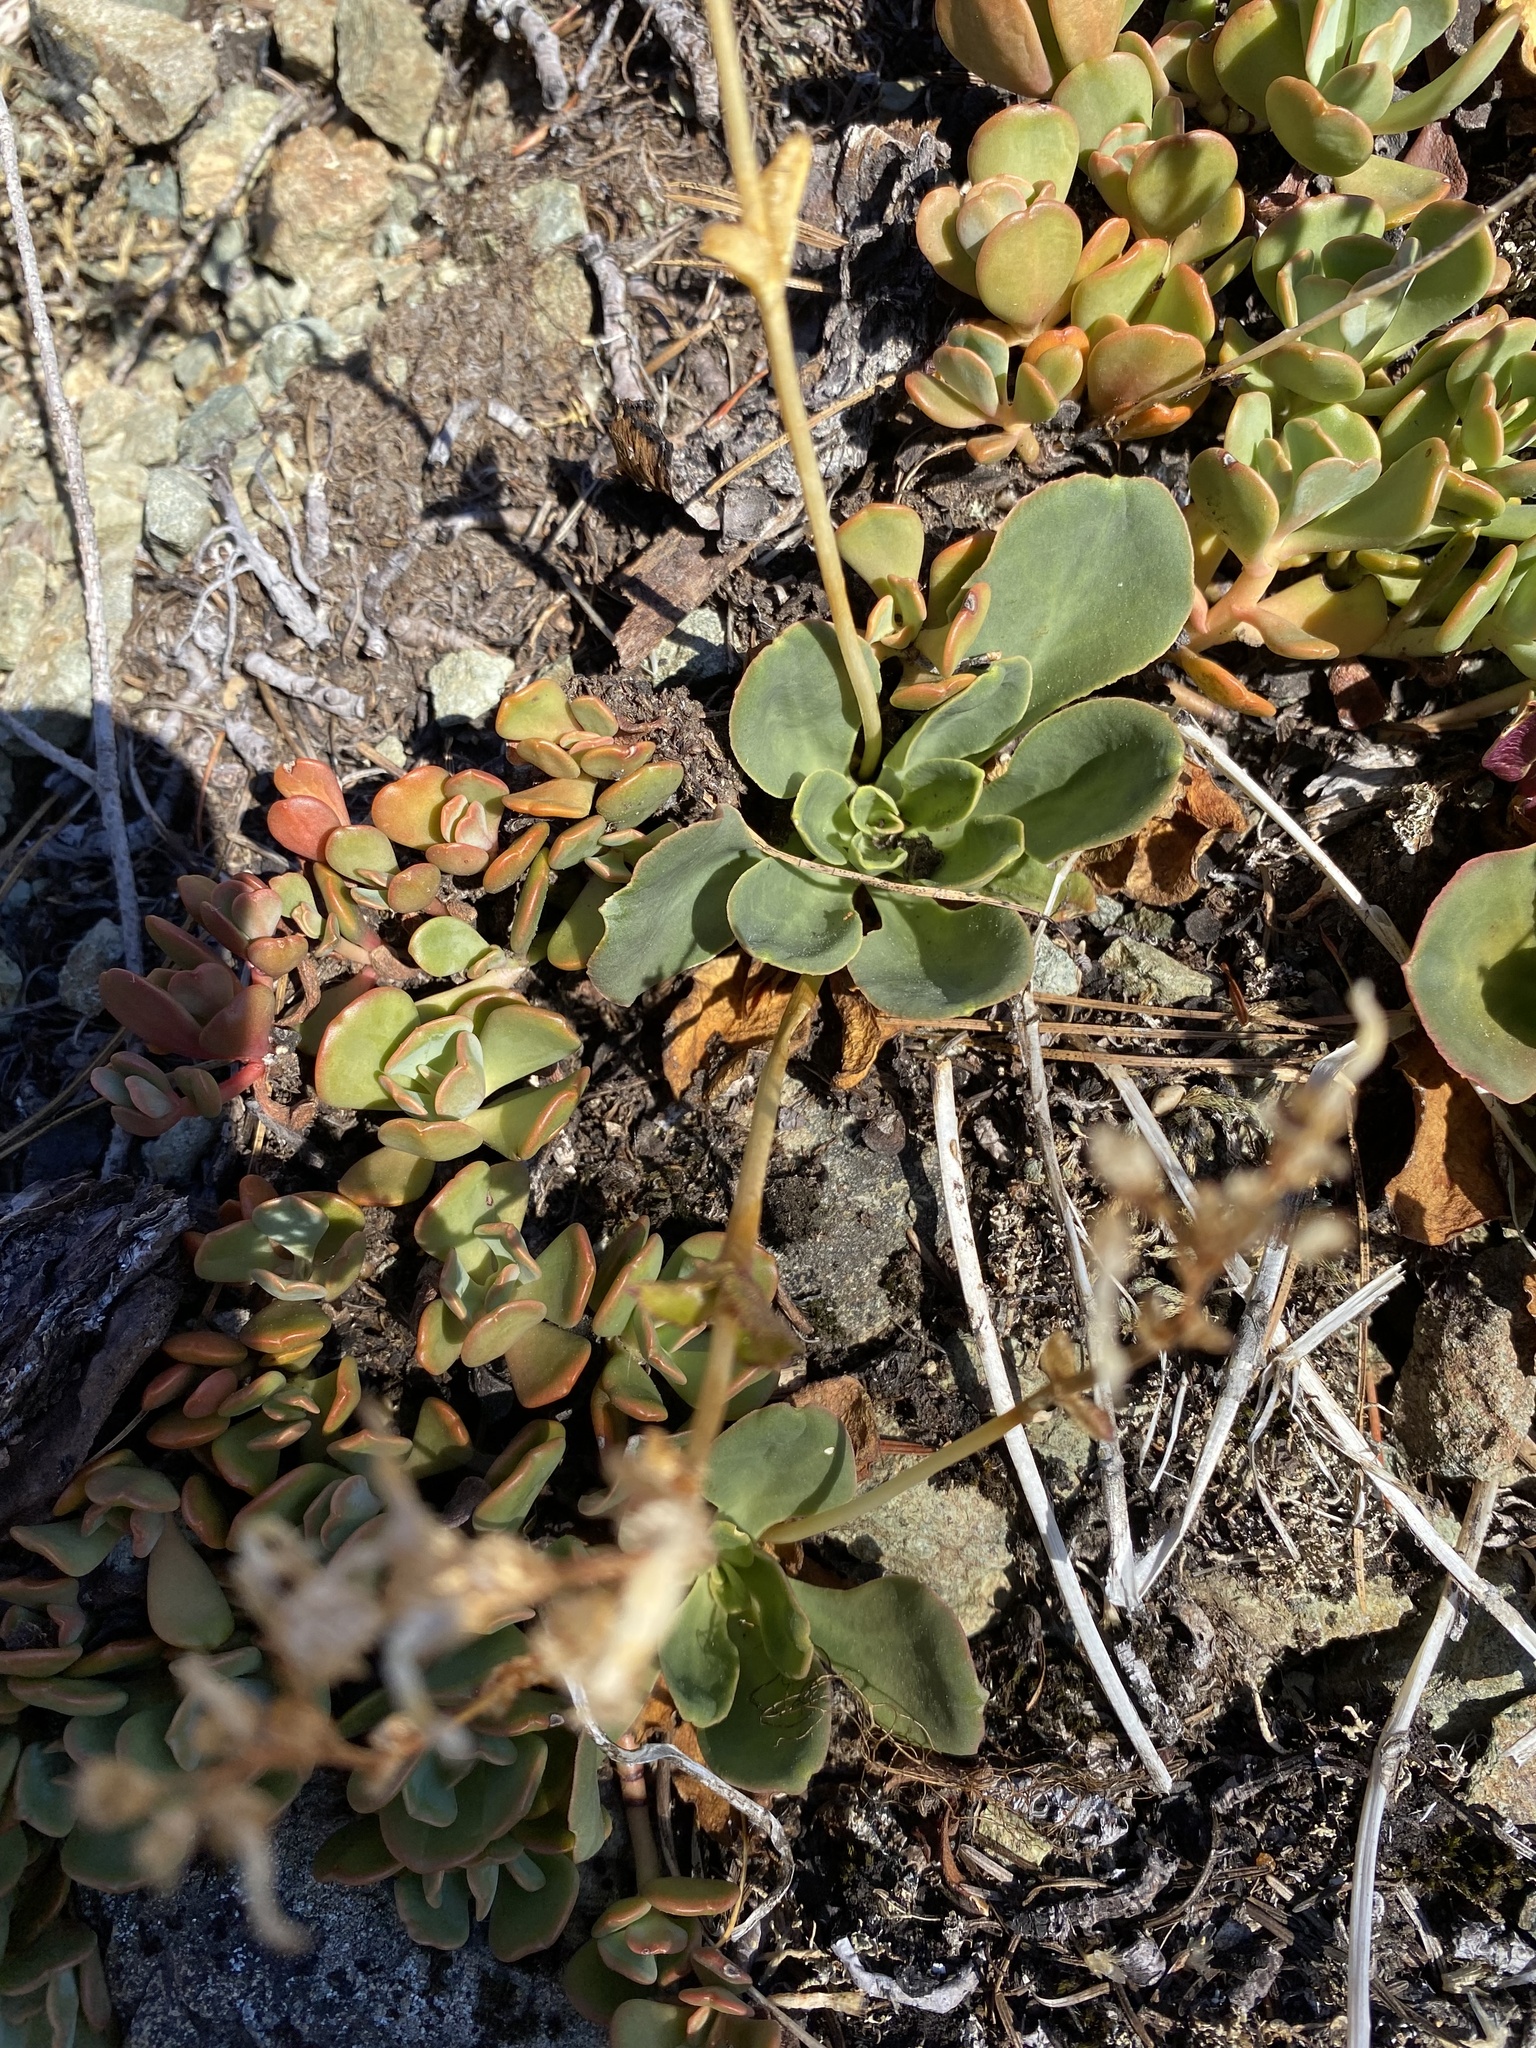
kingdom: Plantae
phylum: Tracheophyta
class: Magnoliopsida
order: Caryophyllales
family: Montiaceae
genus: Lewisia
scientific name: Lewisia cotyledon
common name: Siskiyou lewisia
